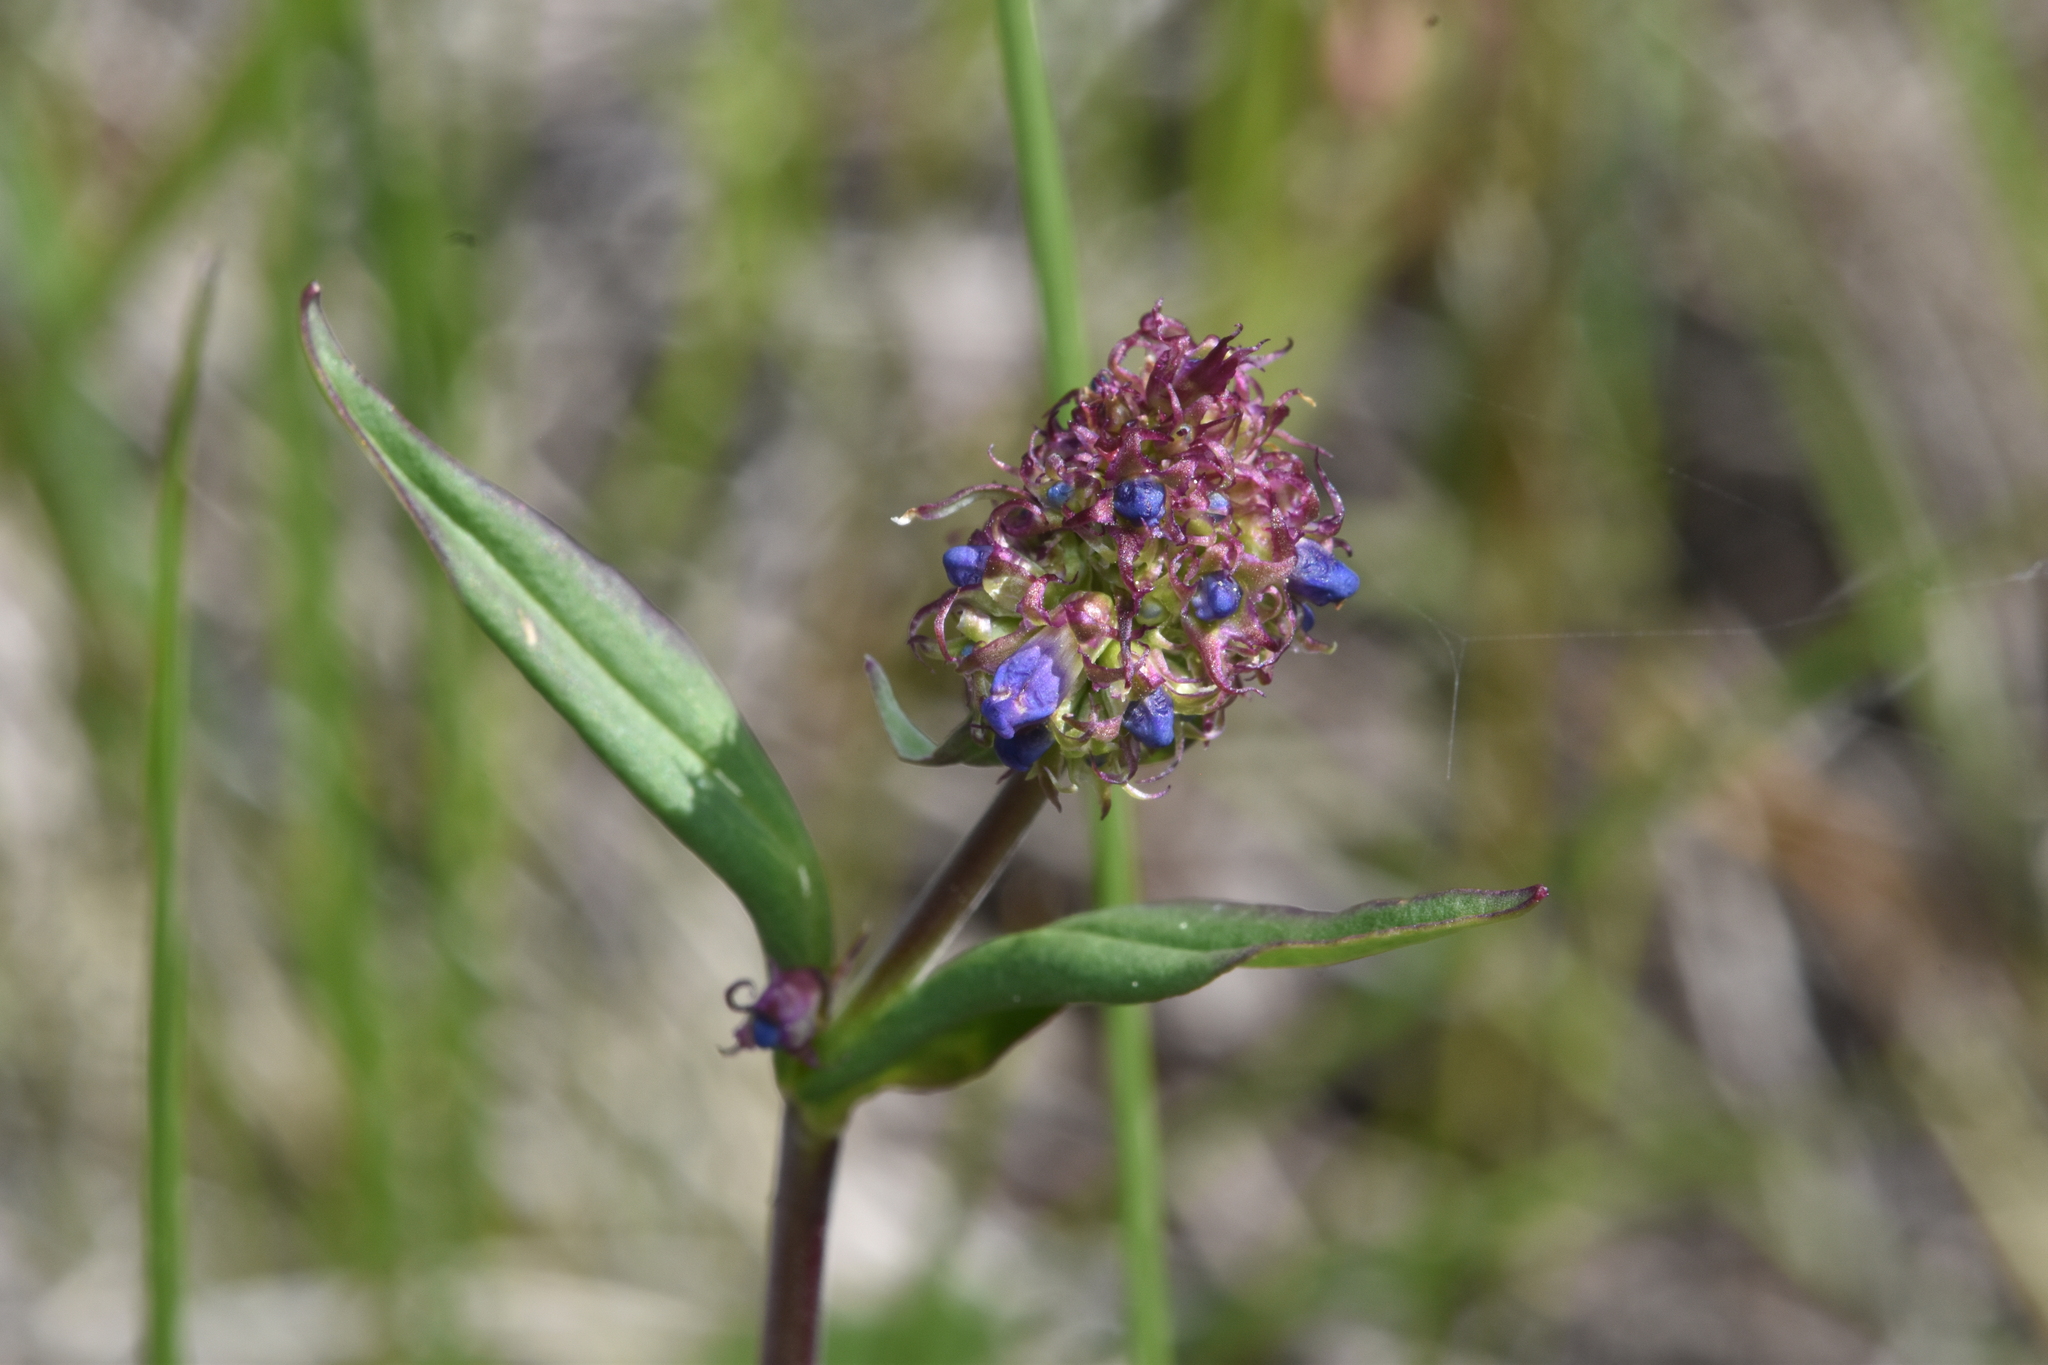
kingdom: Plantae
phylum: Tracheophyta
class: Magnoliopsida
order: Lamiales
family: Plantaginaceae
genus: Penstemon
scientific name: Penstemon procerus
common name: Small-flower penstemon
